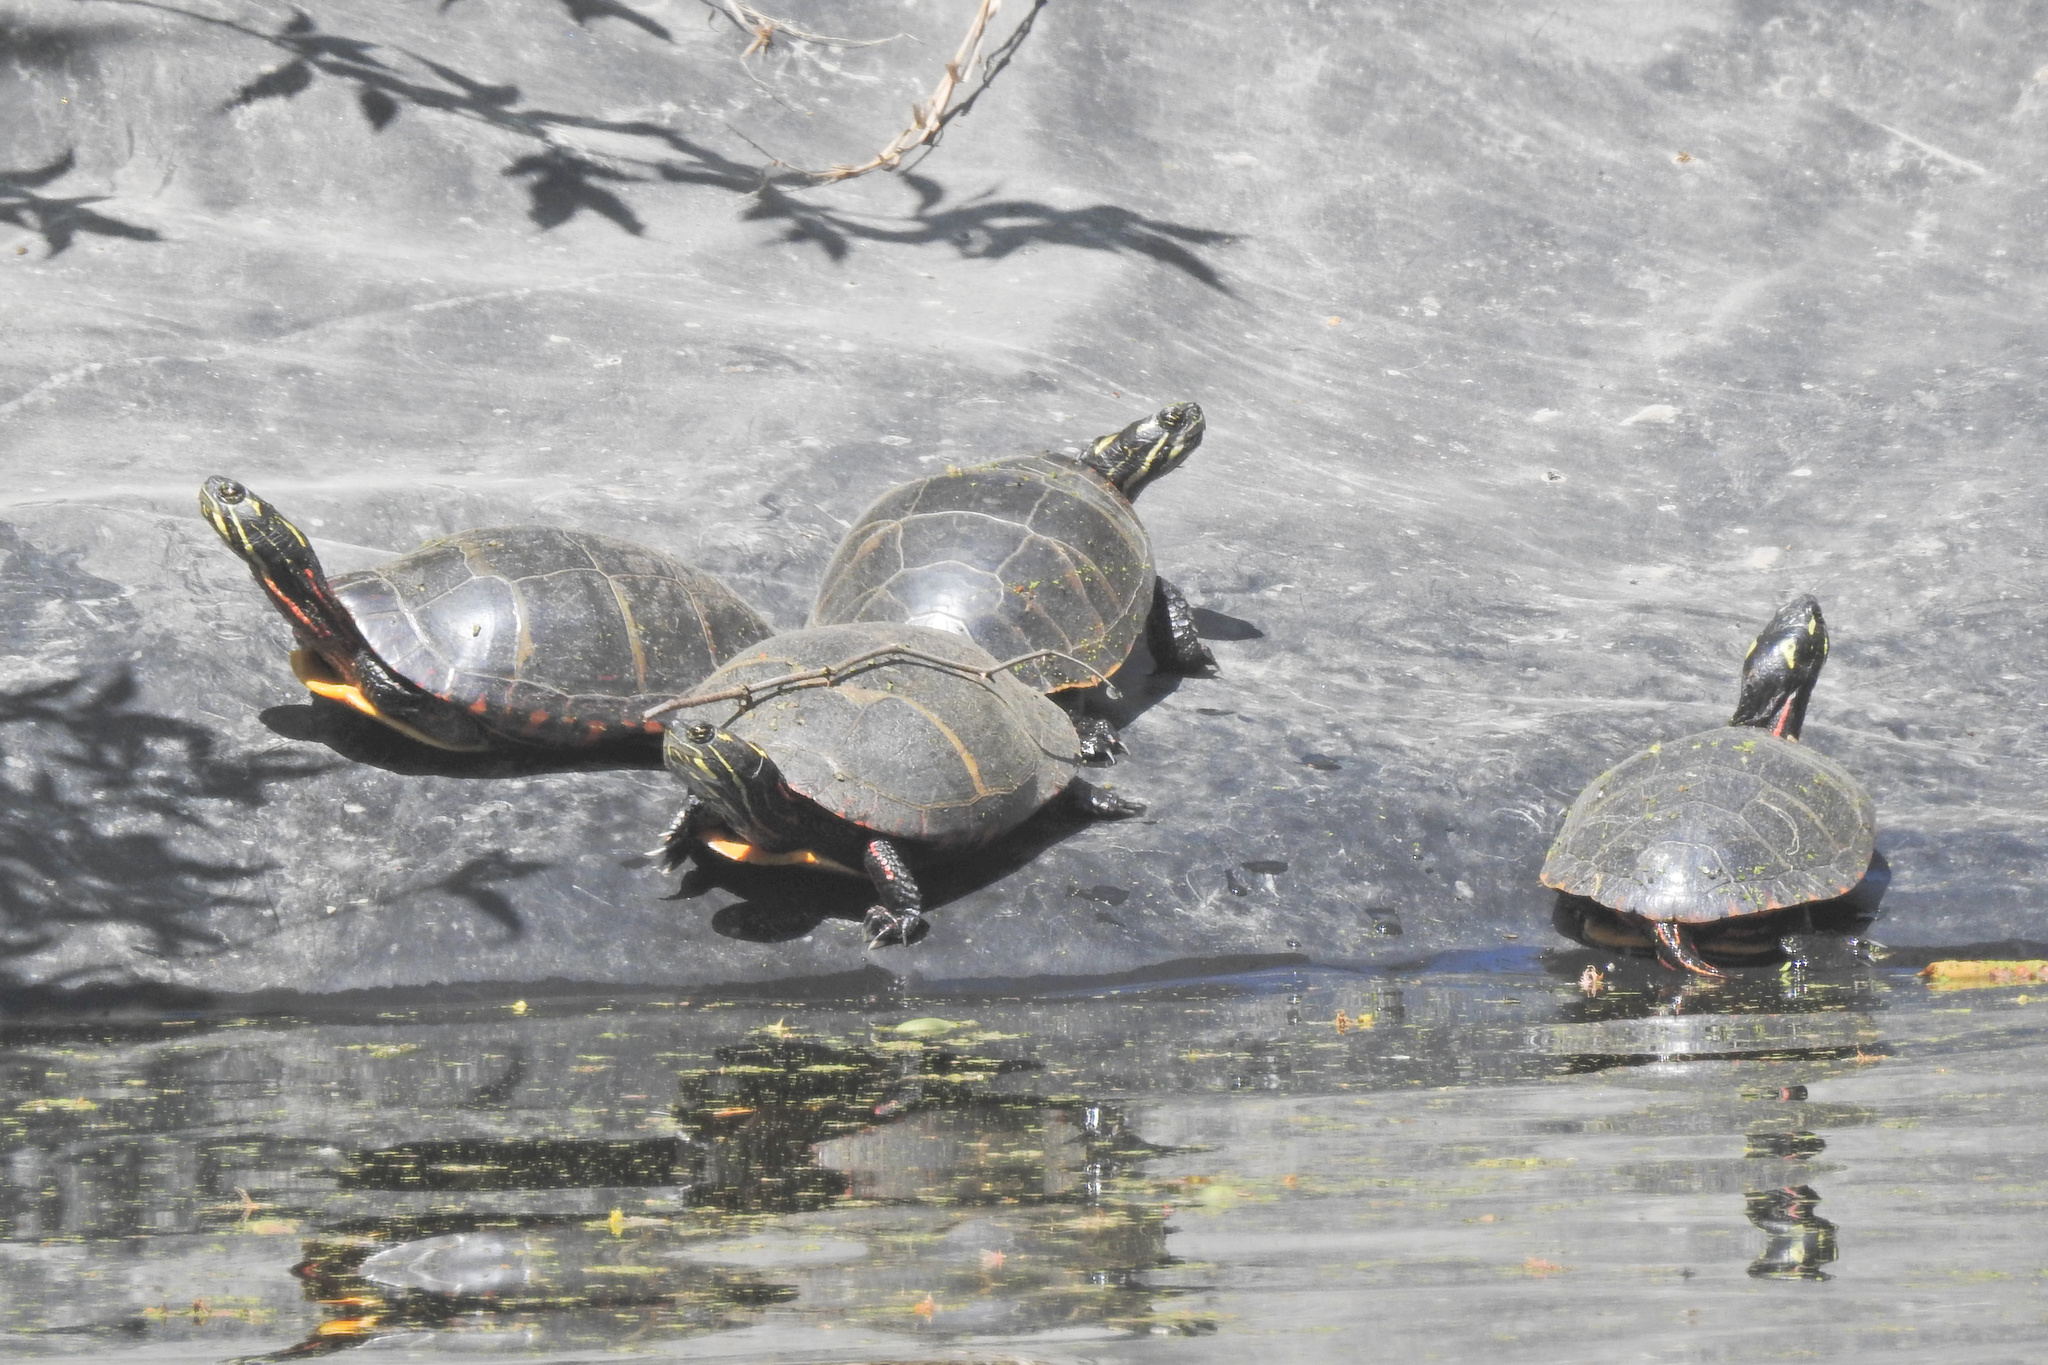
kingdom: Animalia
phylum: Chordata
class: Testudines
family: Emydidae
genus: Chrysemys
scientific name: Chrysemys picta
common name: Painted turtle
